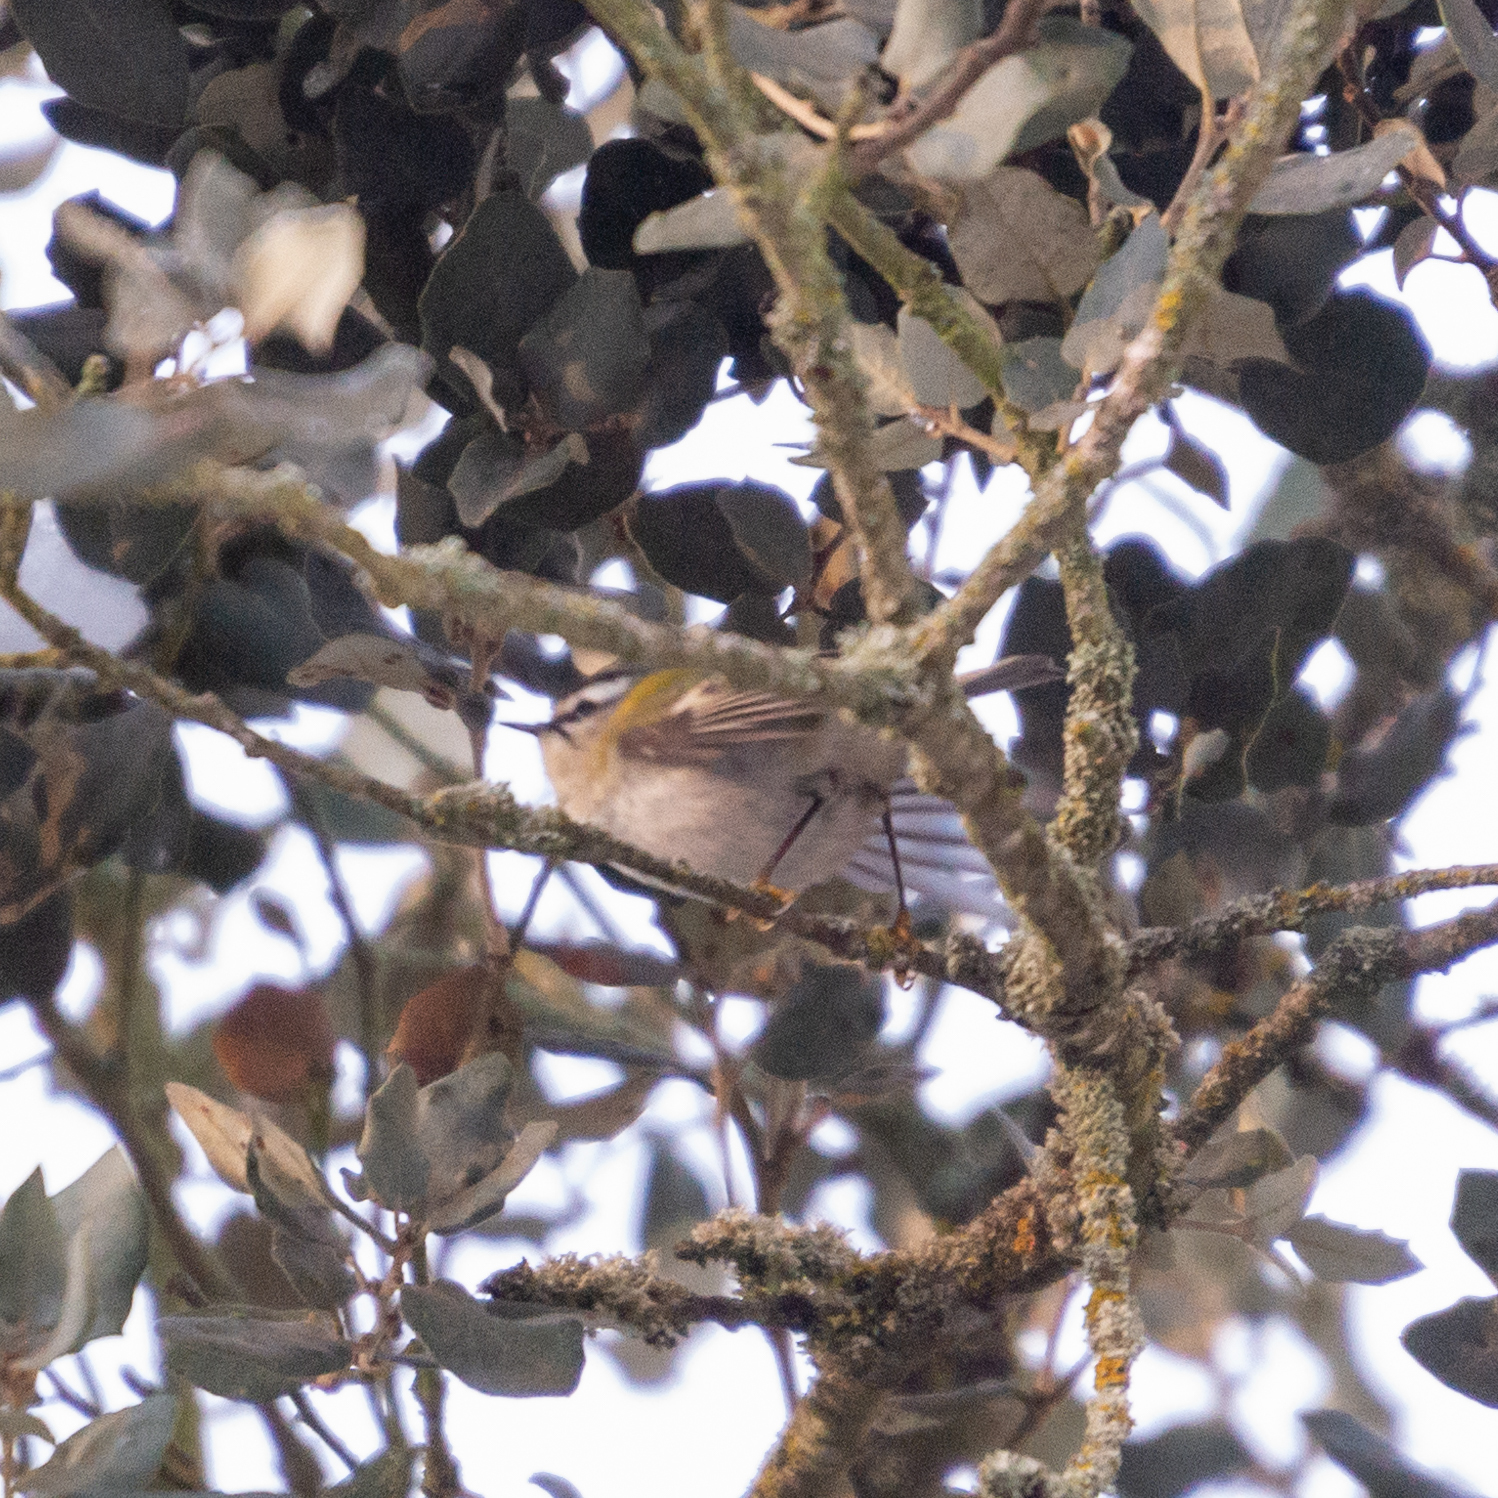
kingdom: Animalia
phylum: Chordata
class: Aves
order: Passeriformes
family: Regulidae
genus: Regulus
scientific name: Regulus ignicapilla
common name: Firecrest
